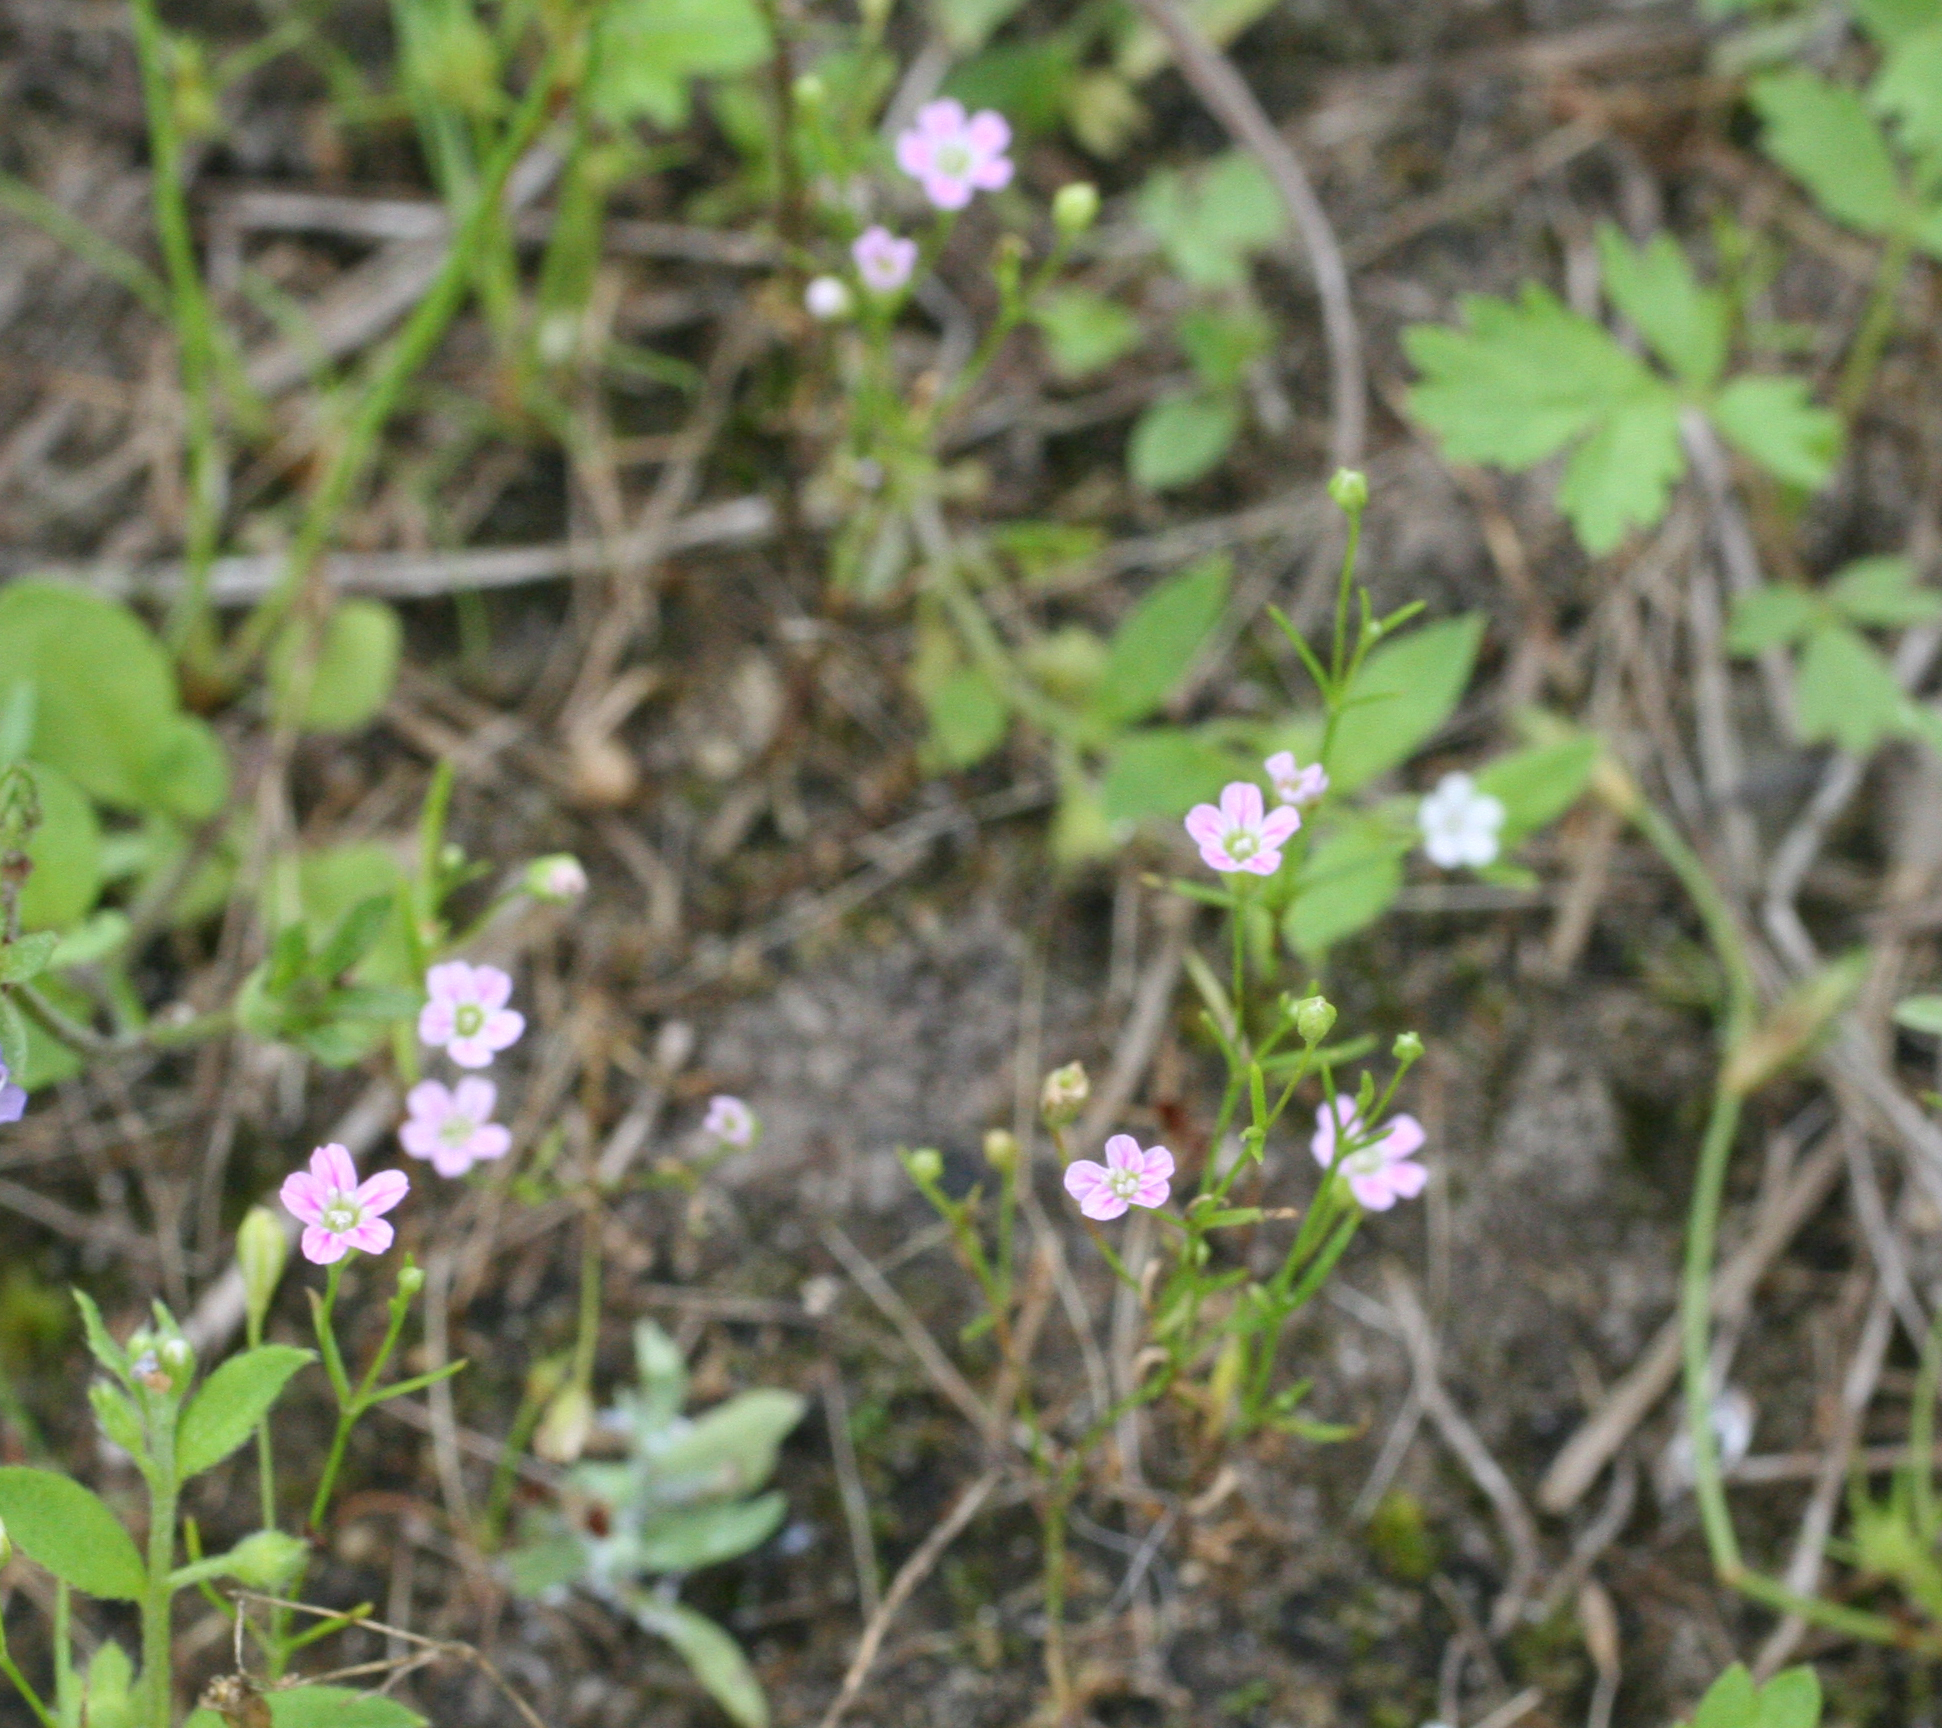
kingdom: Plantae
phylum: Tracheophyta
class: Magnoliopsida
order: Caryophyllales
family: Caryophyllaceae
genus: Psammophiliella
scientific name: Psammophiliella muralis
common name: Cushion baby's-breath
